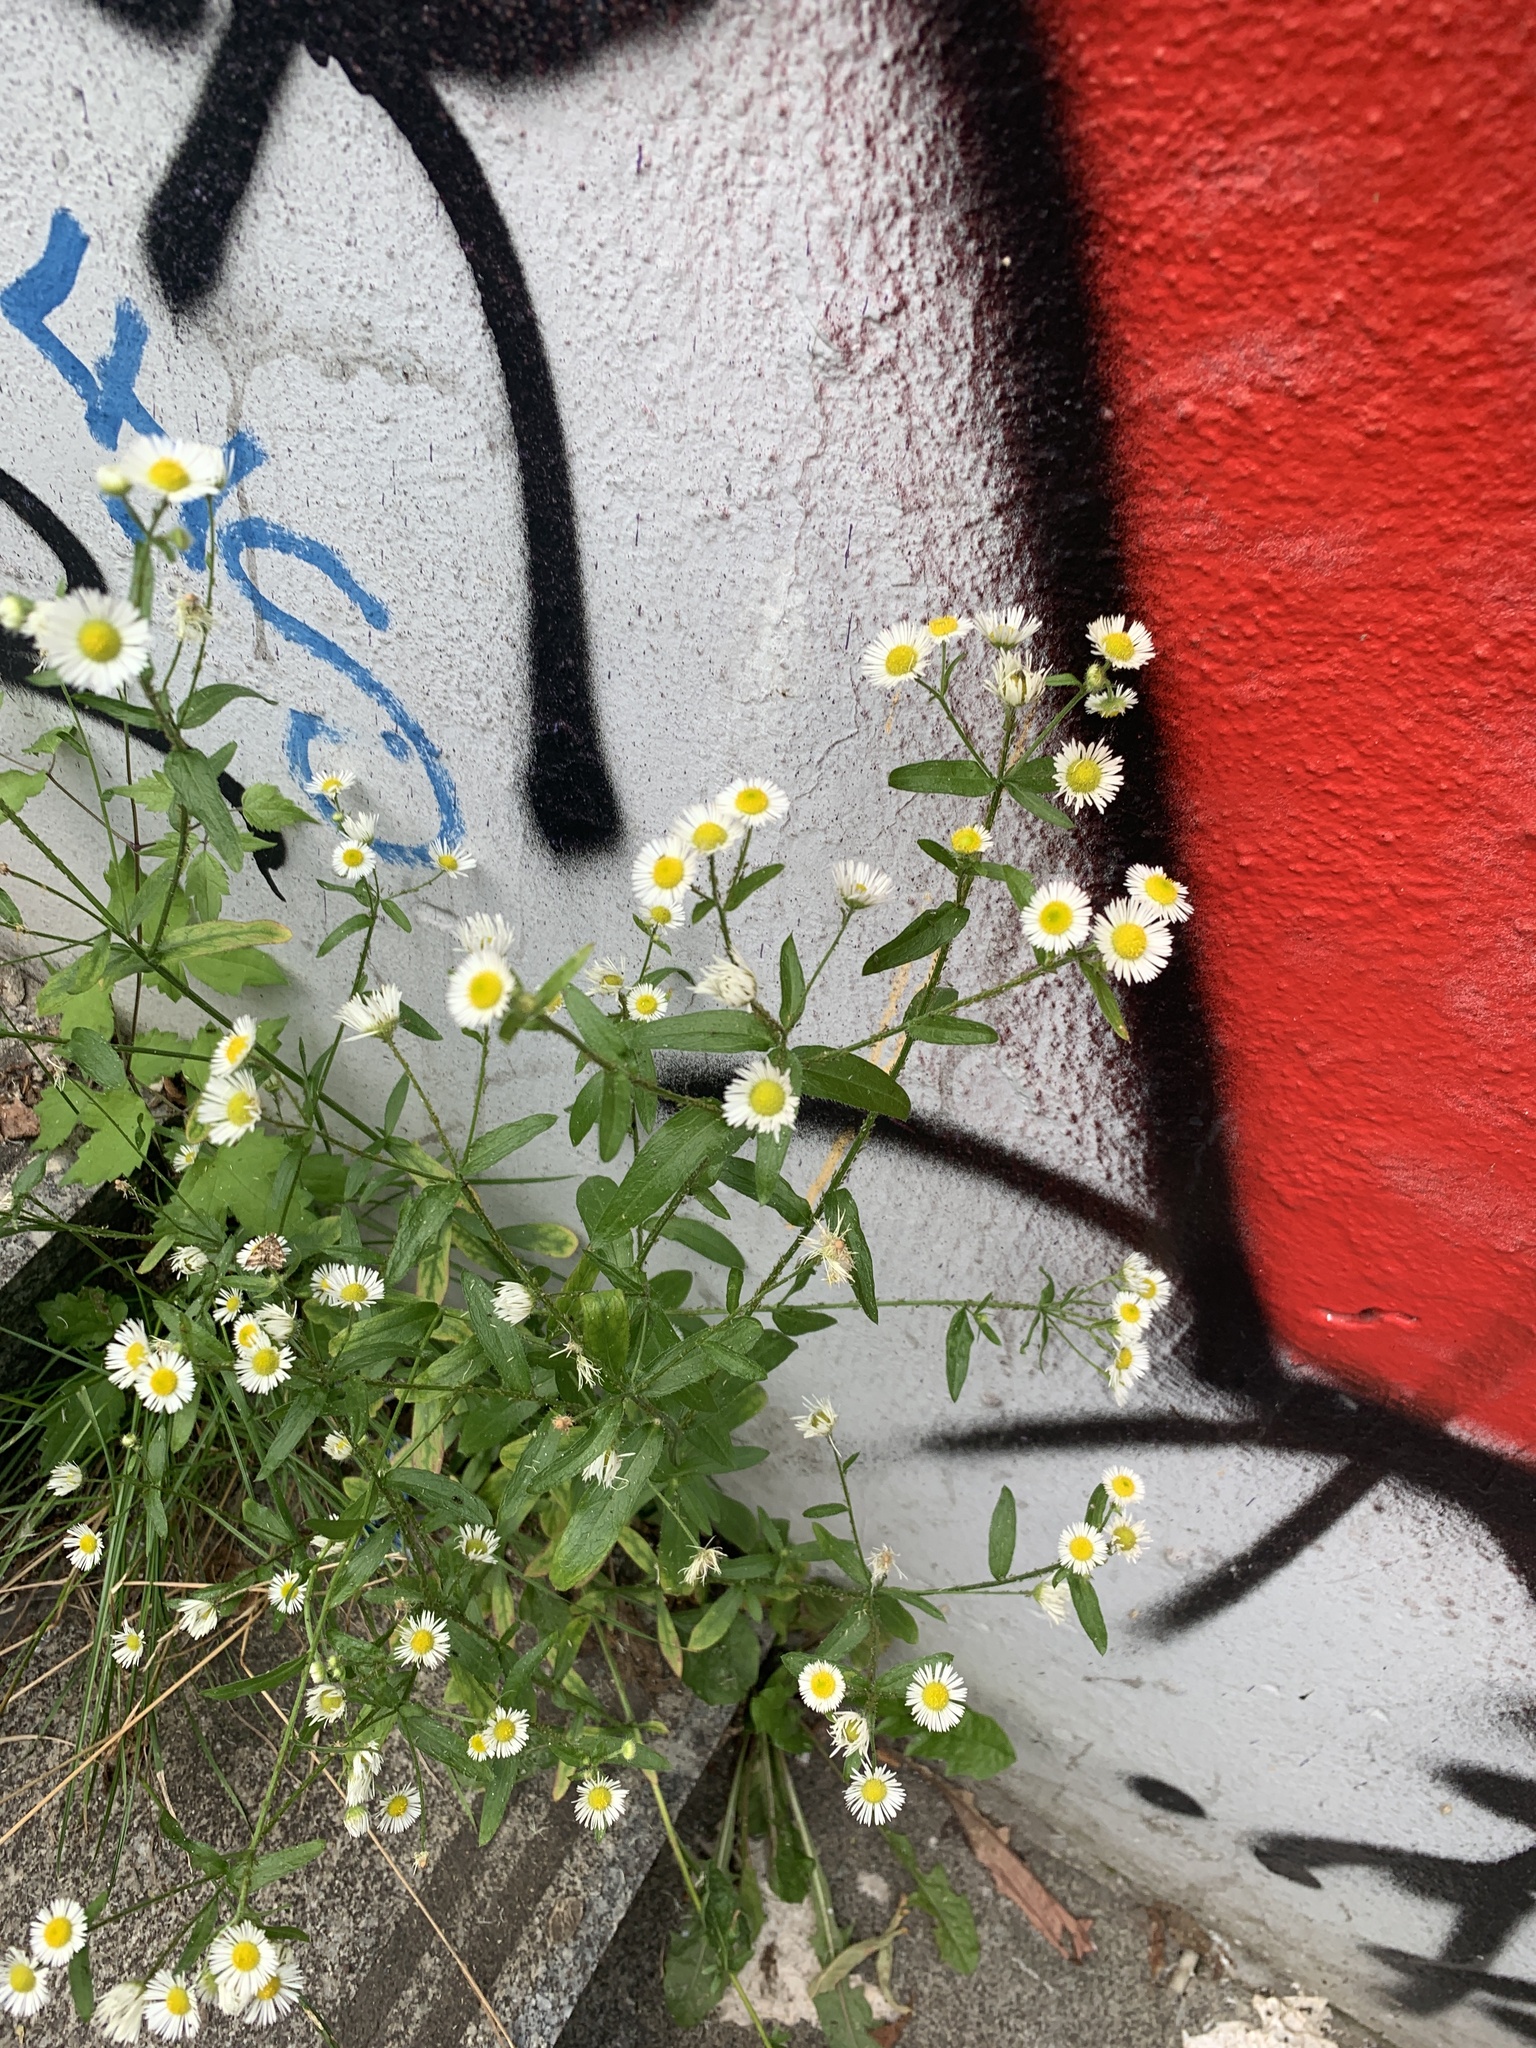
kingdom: Plantae
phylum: Tracheophyta
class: Magnoliopsida
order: Asterales
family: Asteraceae
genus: Erigeron
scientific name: Erigeron annuus
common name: Tall fleabane
